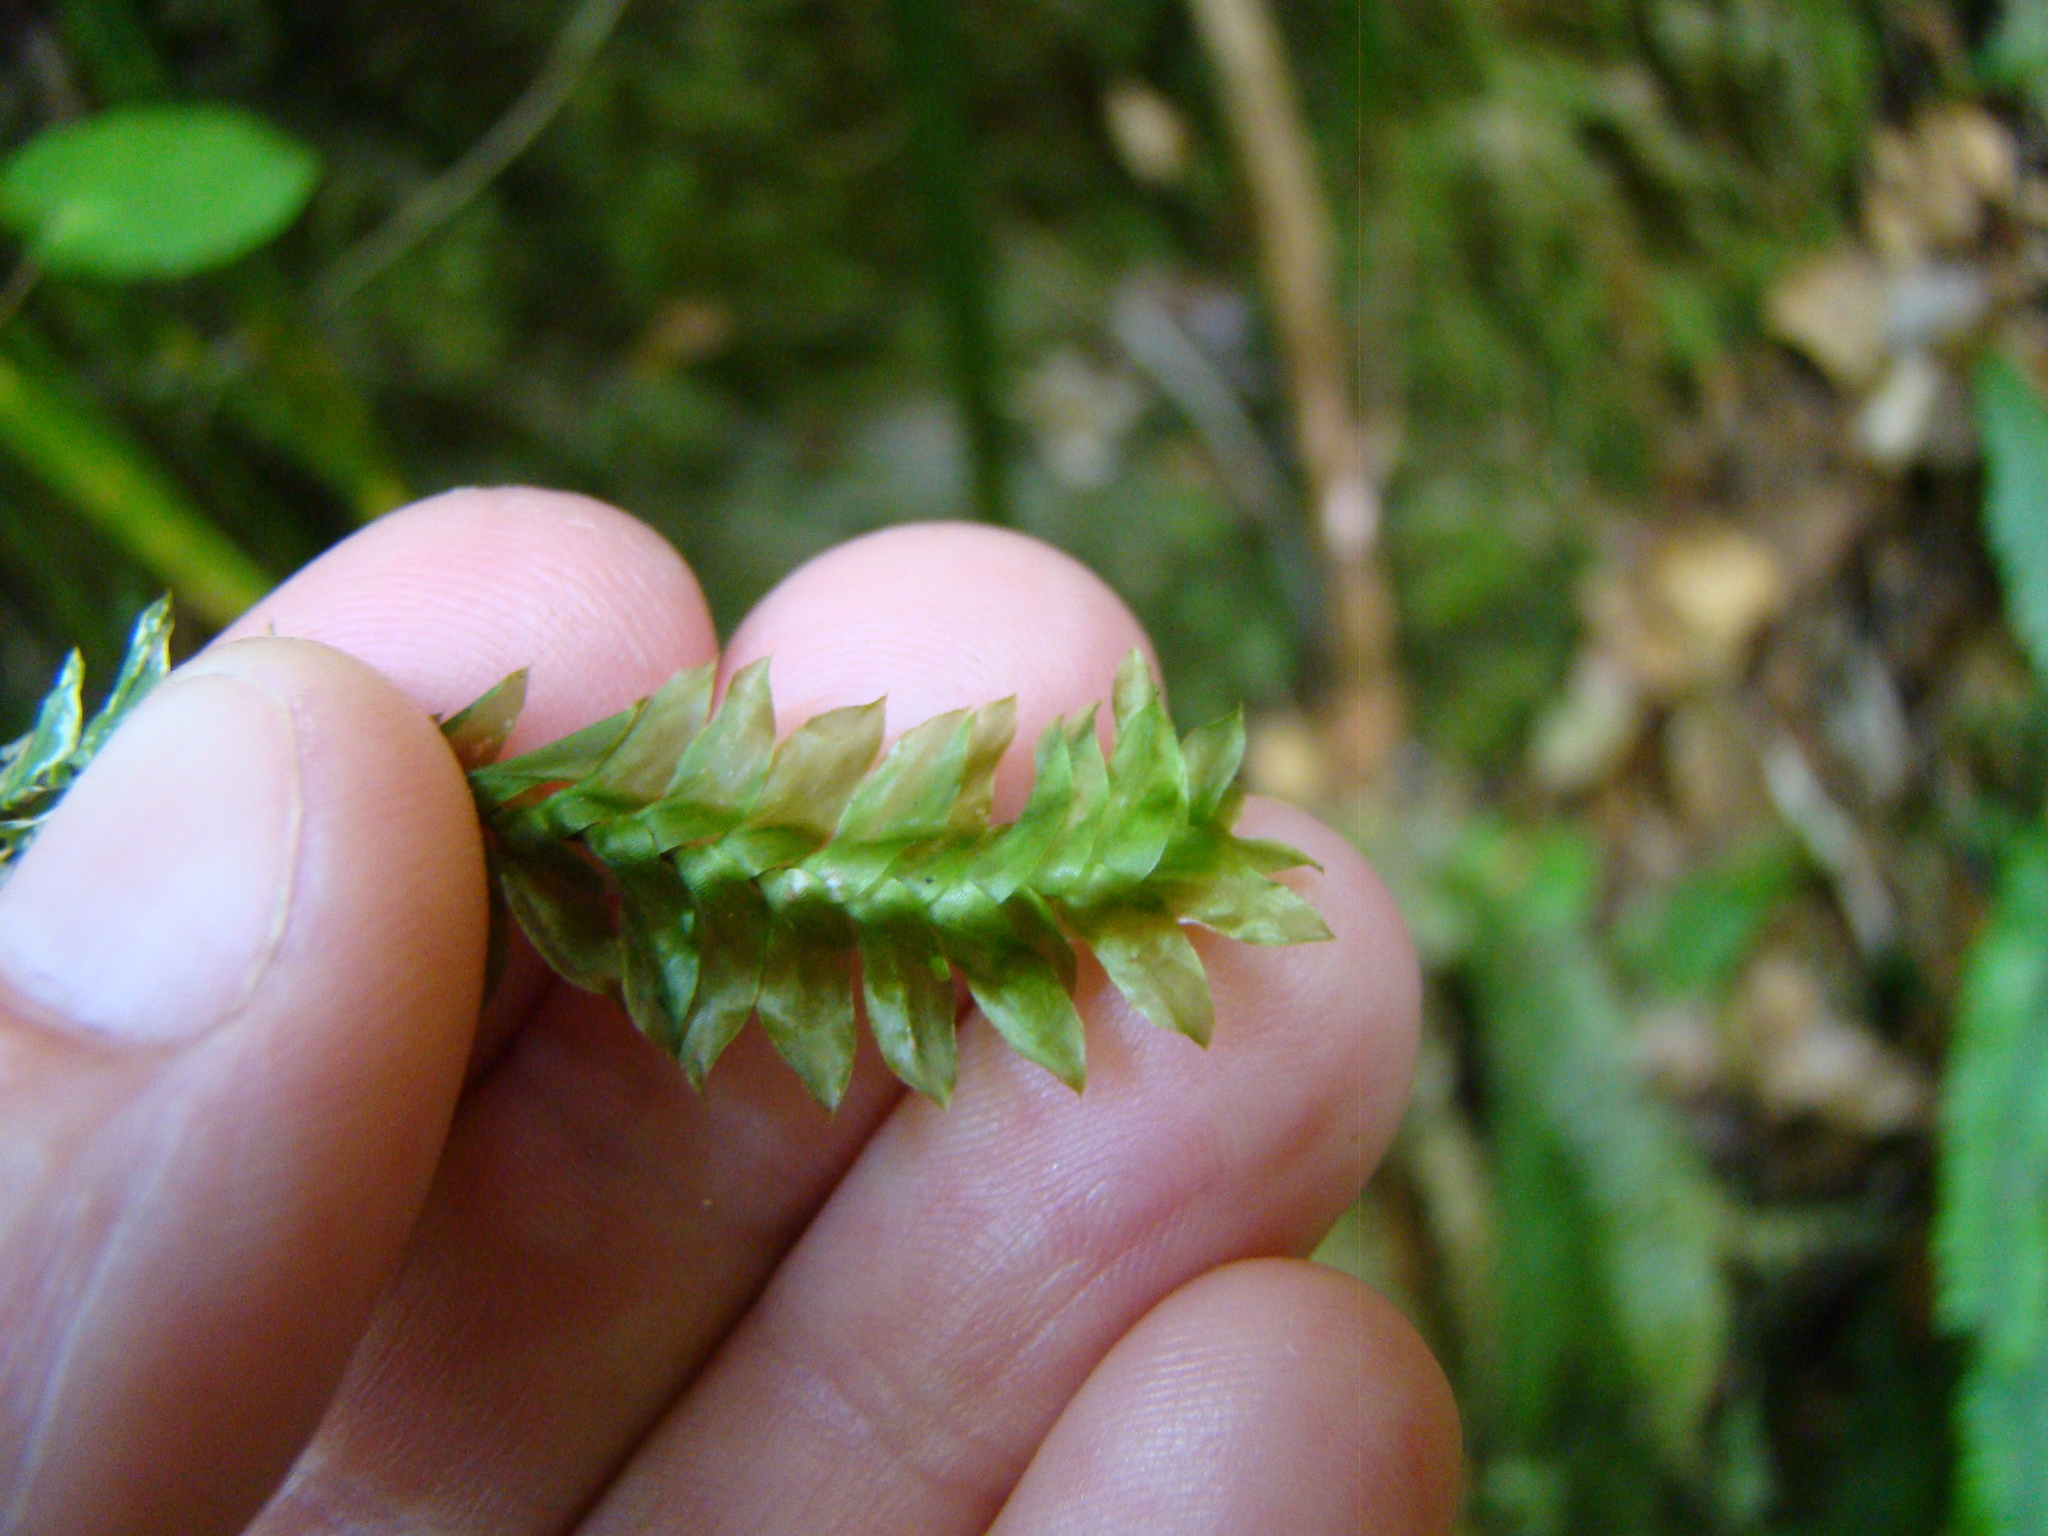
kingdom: Plantae
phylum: Bryophyta
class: Bryopsida
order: Hypopterygiales
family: Hypopterygiaceae
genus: Cyathophorum
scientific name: Cyathophorum bulbosum
